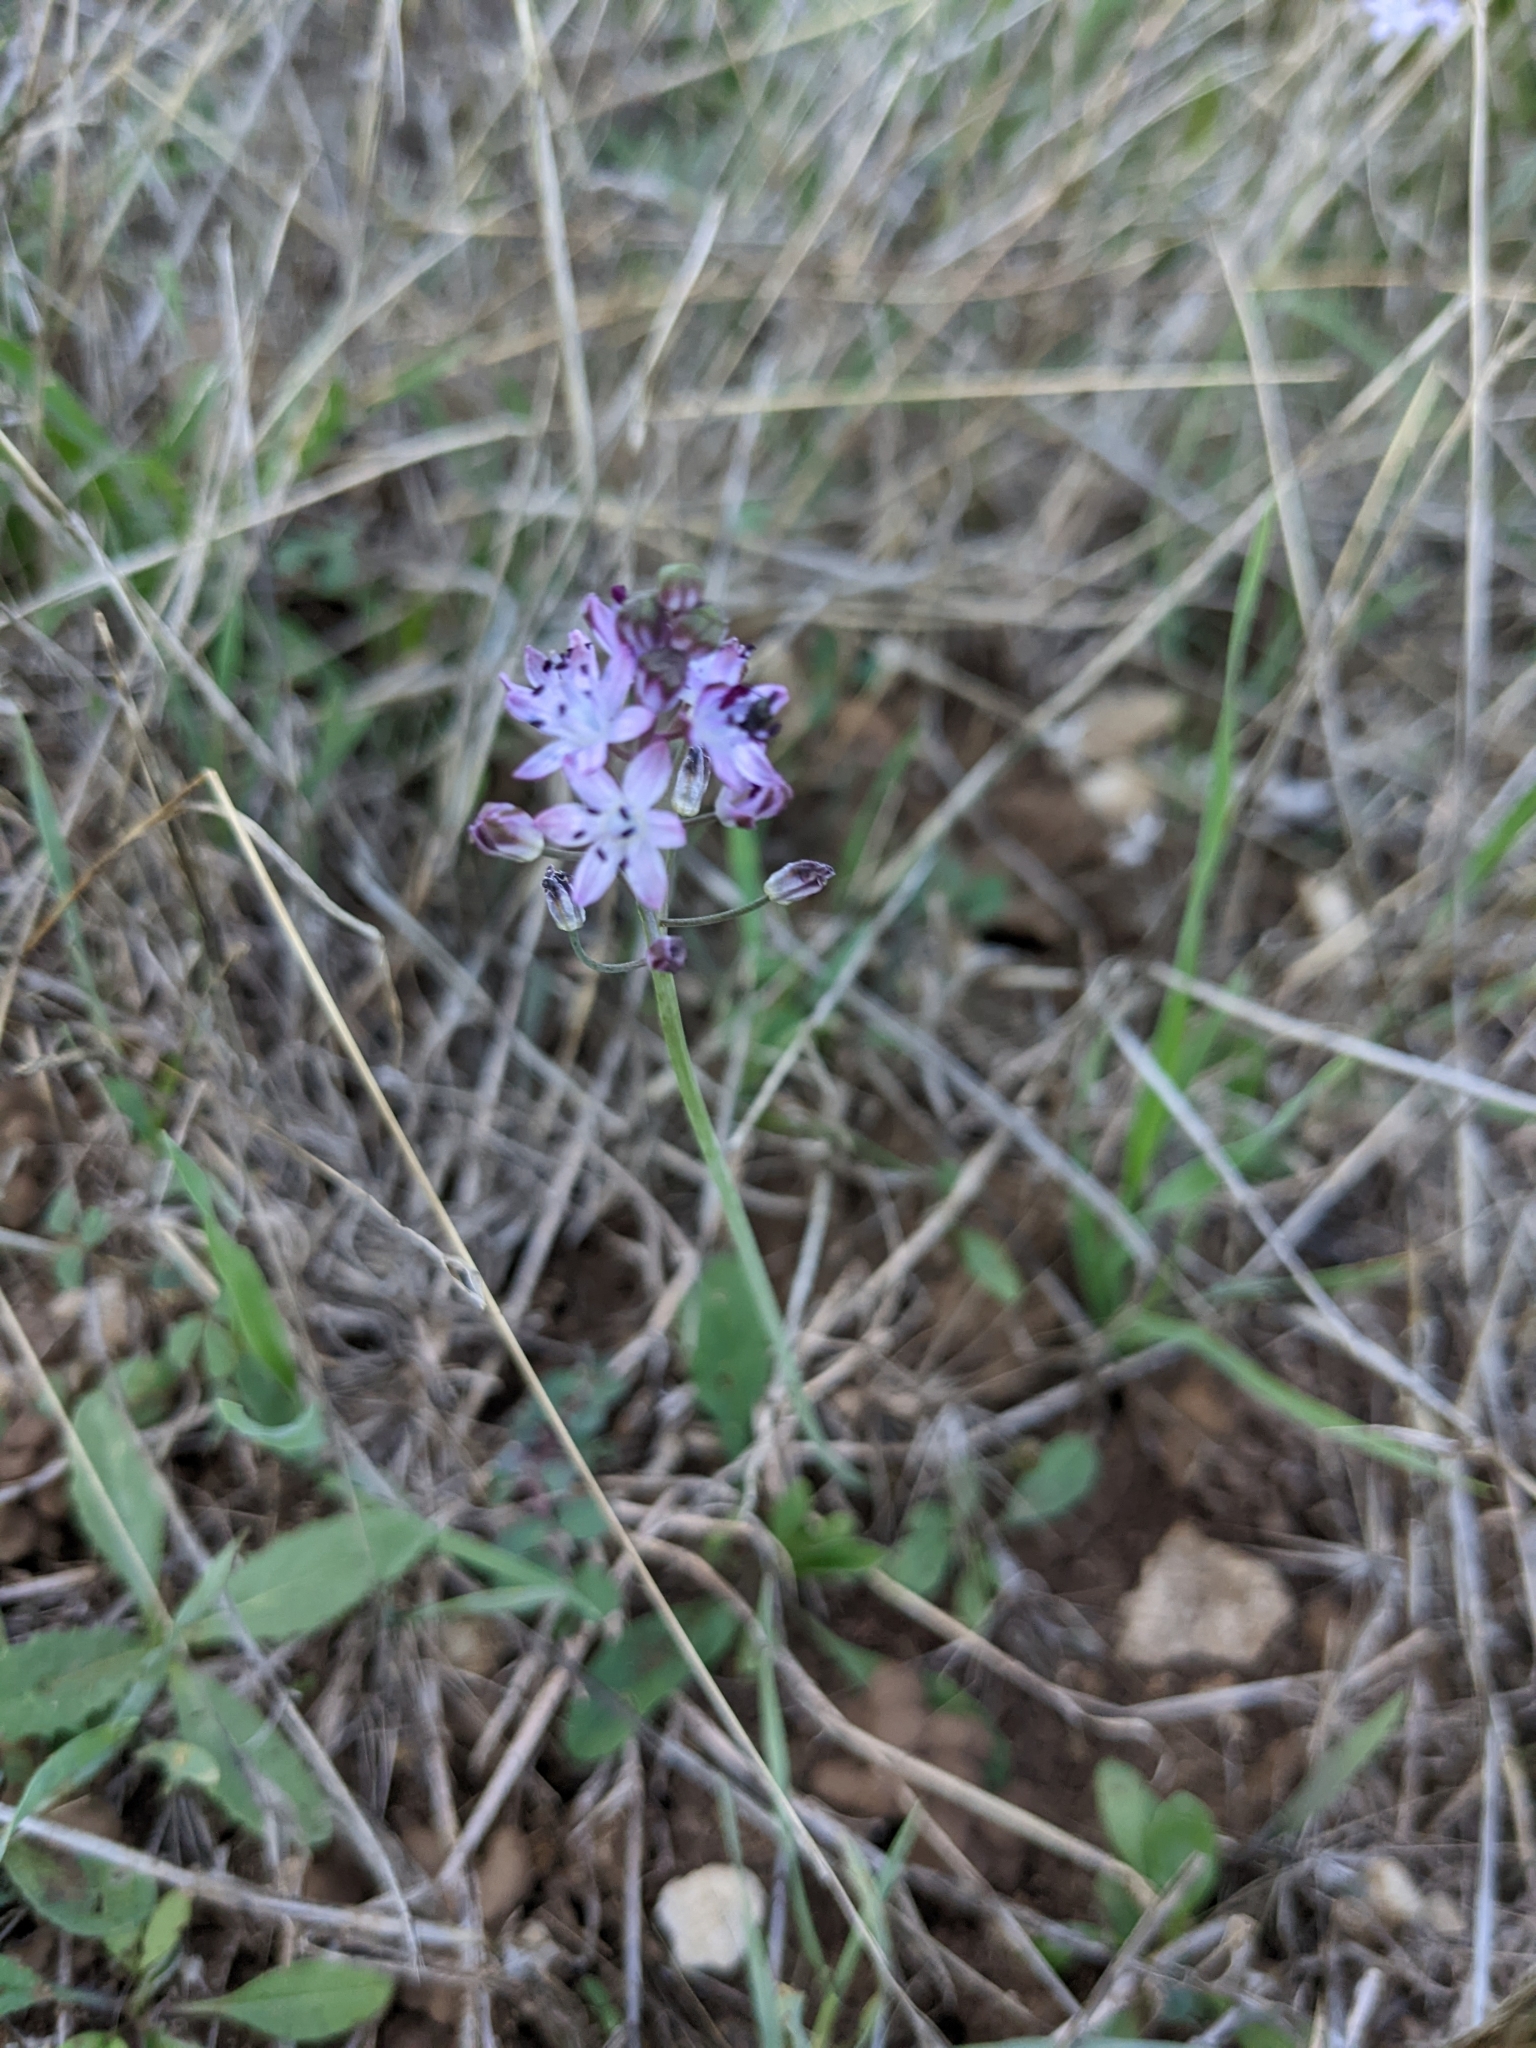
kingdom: Plantae
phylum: Tracheophyta
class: Liliopsida
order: Asparagales
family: Asparagaceae
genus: Prospero
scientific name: Prospero autumnale
